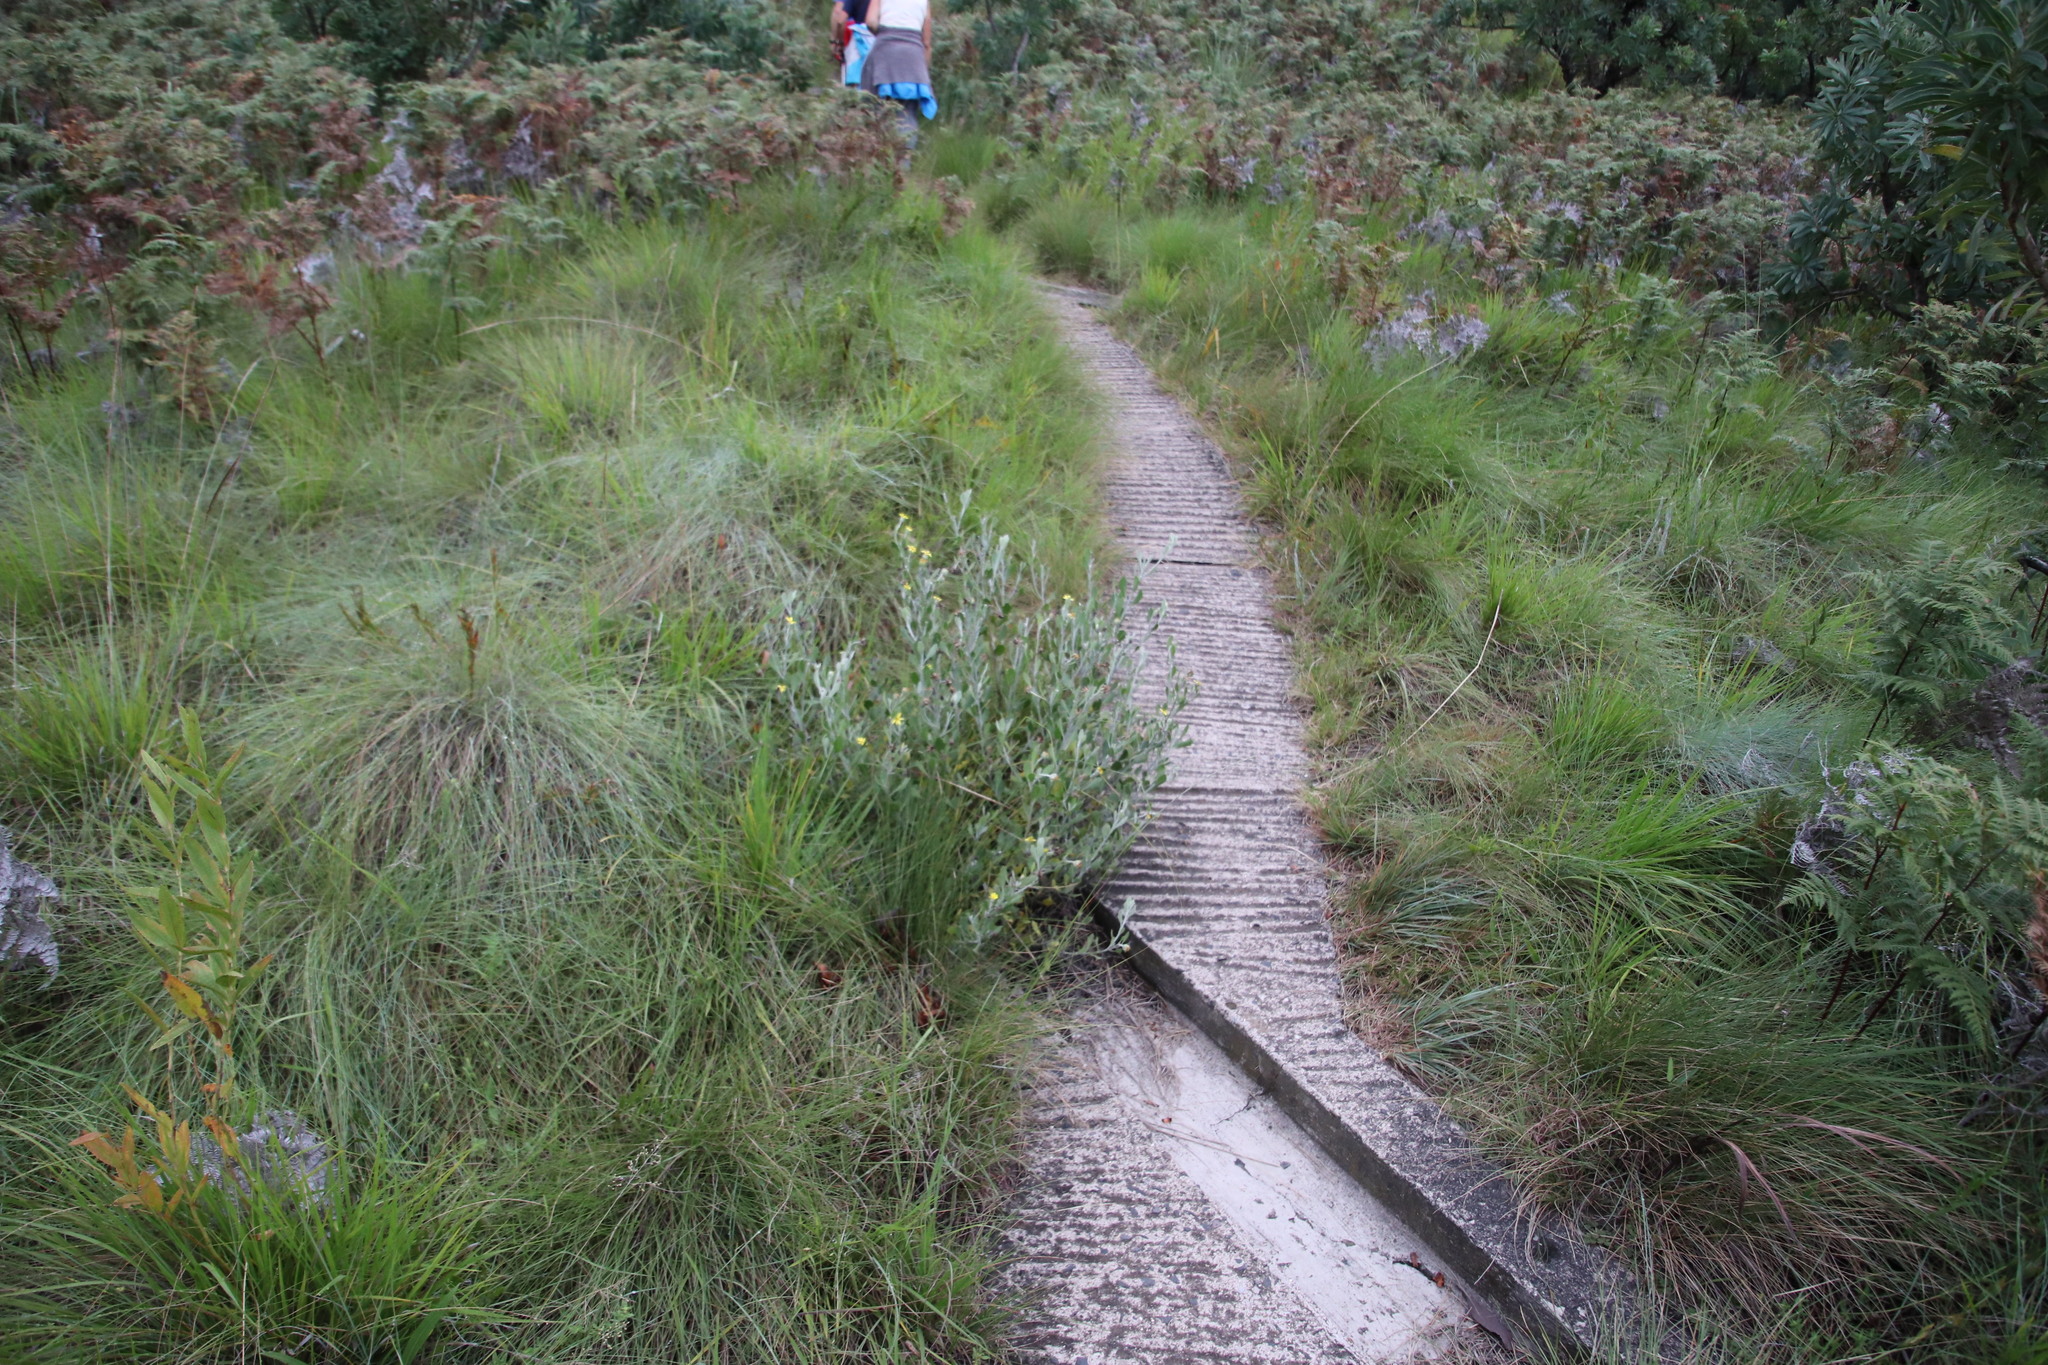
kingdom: Plantae
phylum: Tracheophyta
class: Magnoliopsida
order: Asterales
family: Asteraceae
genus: Osteospermum
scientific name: Osteospermum moniliferum
